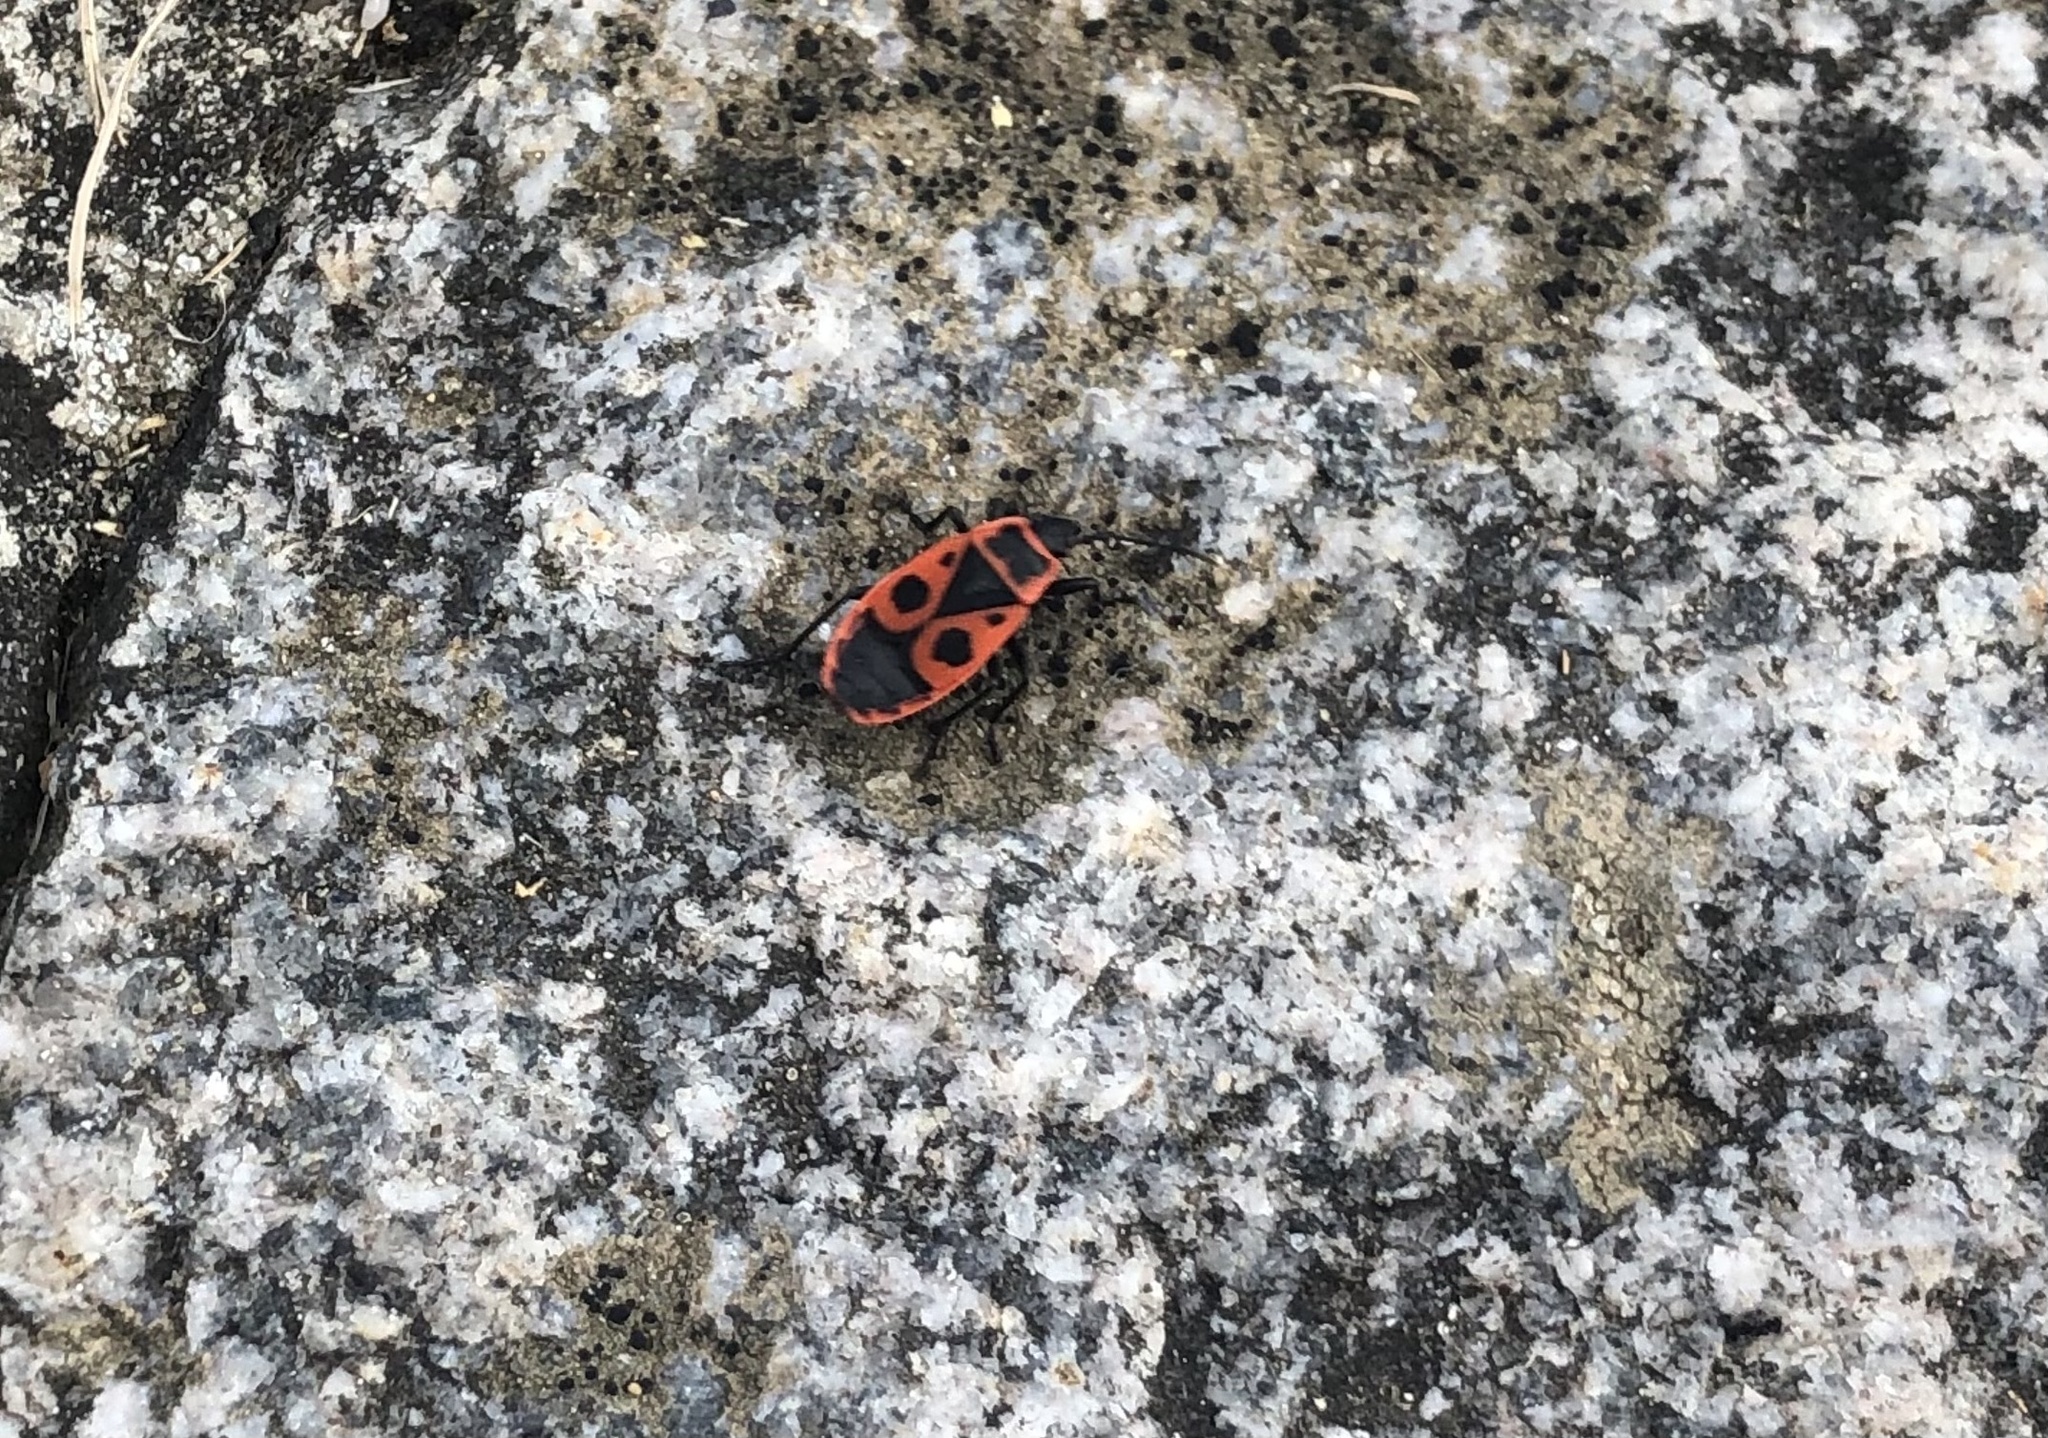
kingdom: Animalia
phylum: Arthropoda
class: Insecta
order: Hemiptera
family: Pyrrhocoridae
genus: Pyrrhocoris
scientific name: Pyrrhocoris apterus
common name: Firebug
